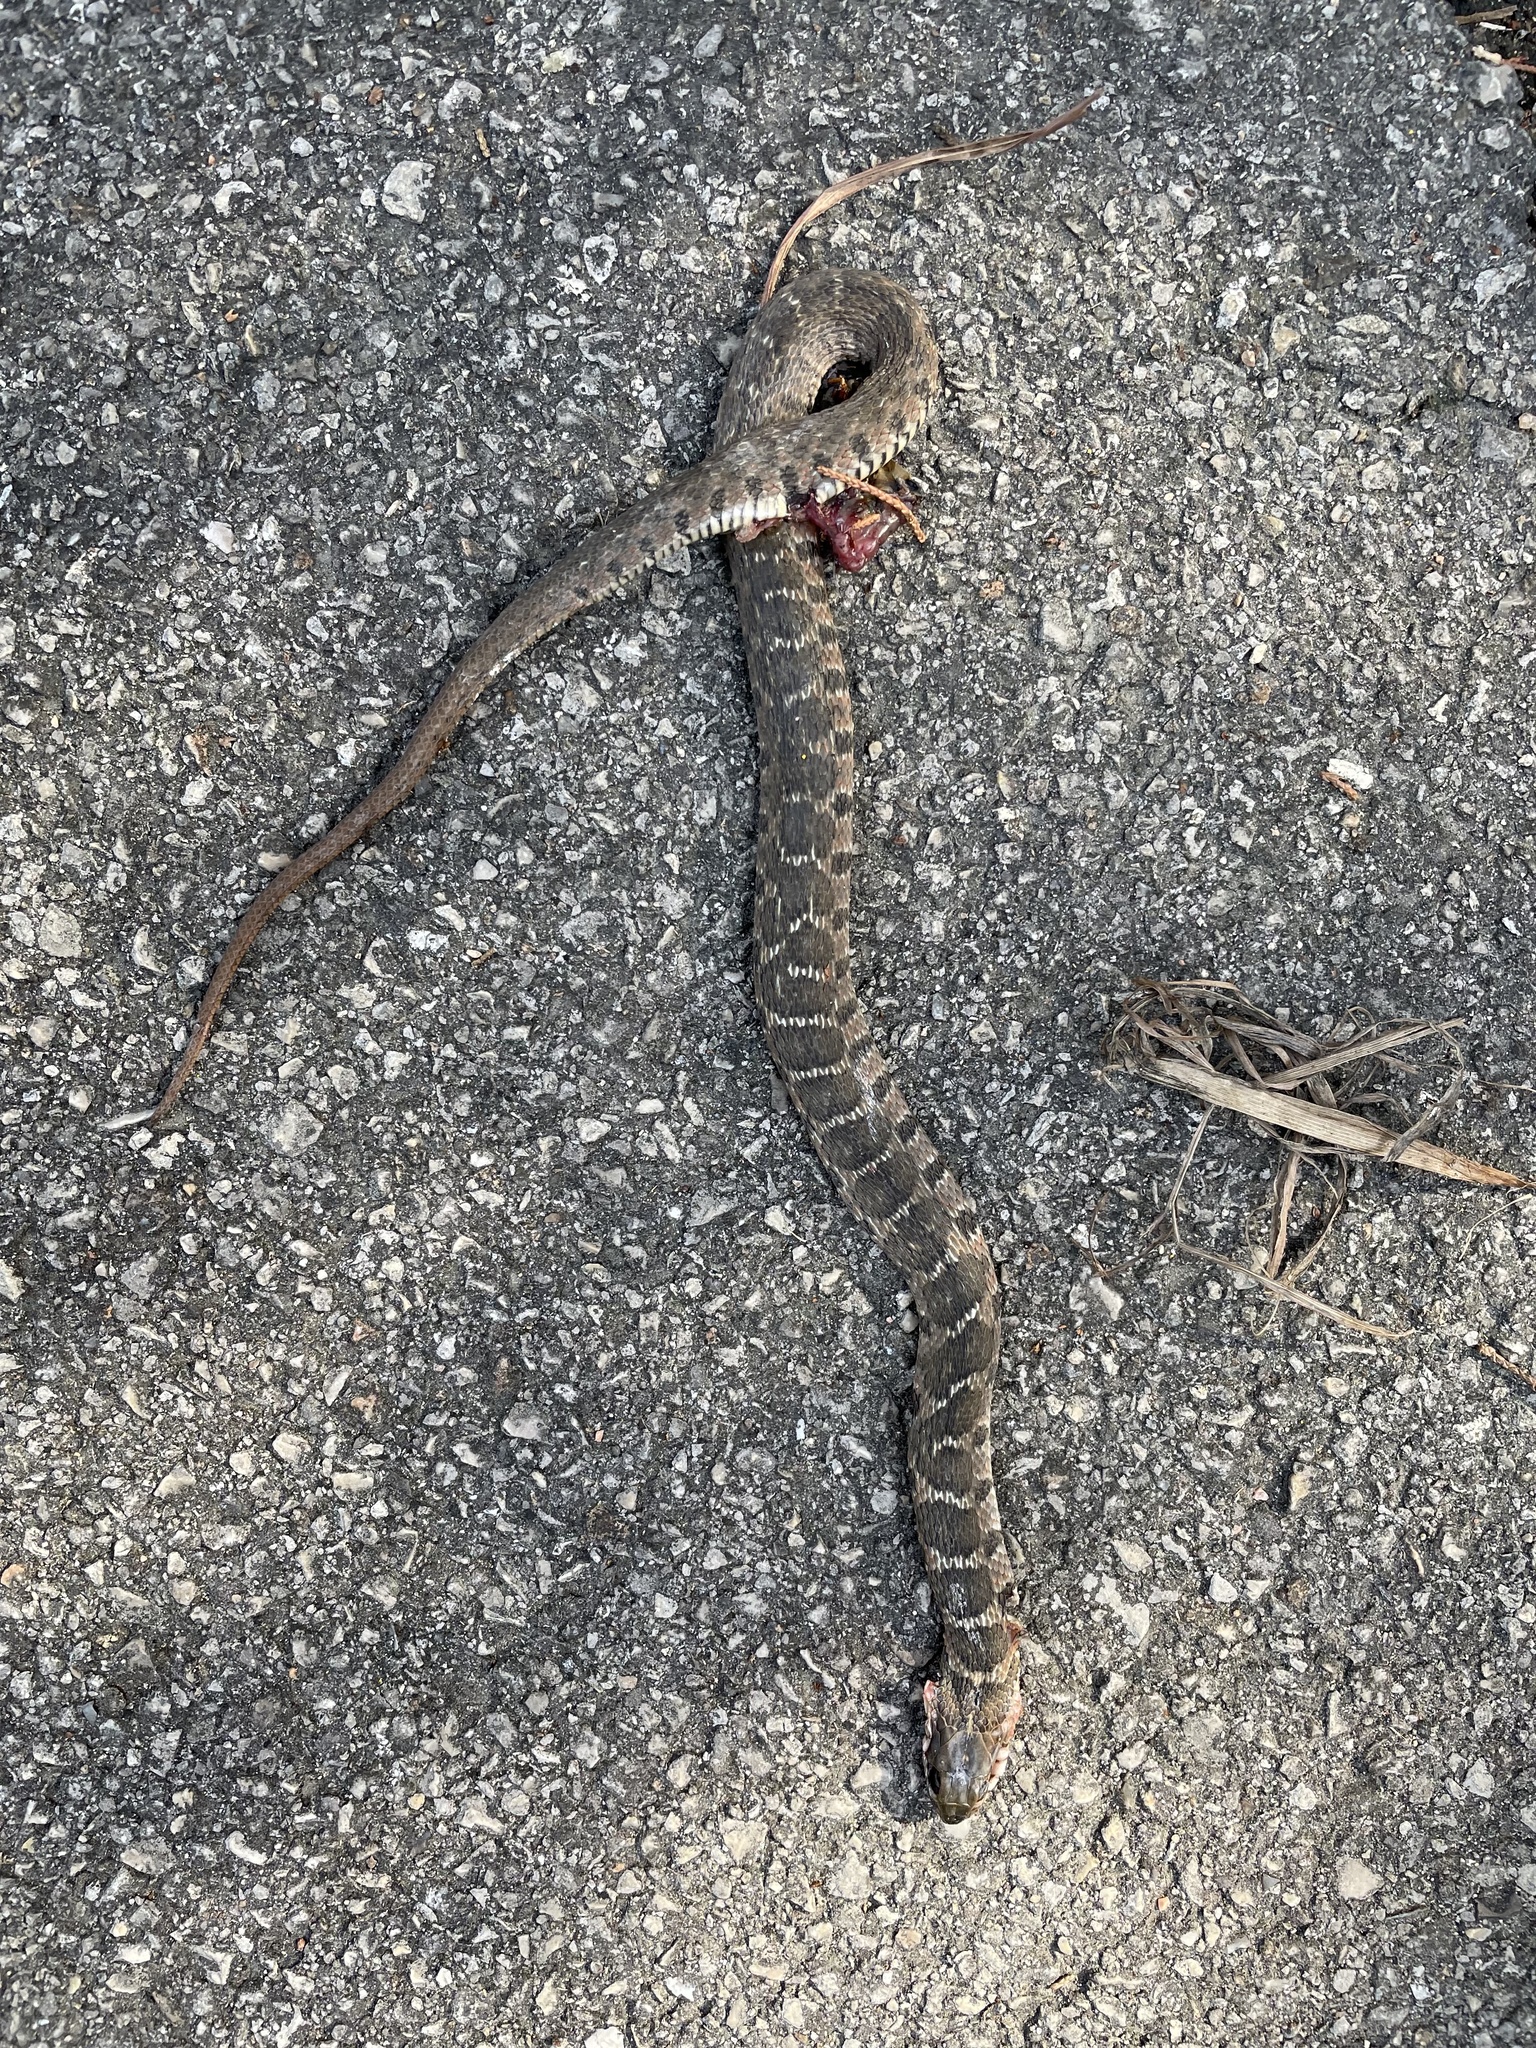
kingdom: Animalia
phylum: Chordata
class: Squamata
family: Colubridae
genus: Nerodia
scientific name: Nerodia erythrogaster
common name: Plainbelly water snake
